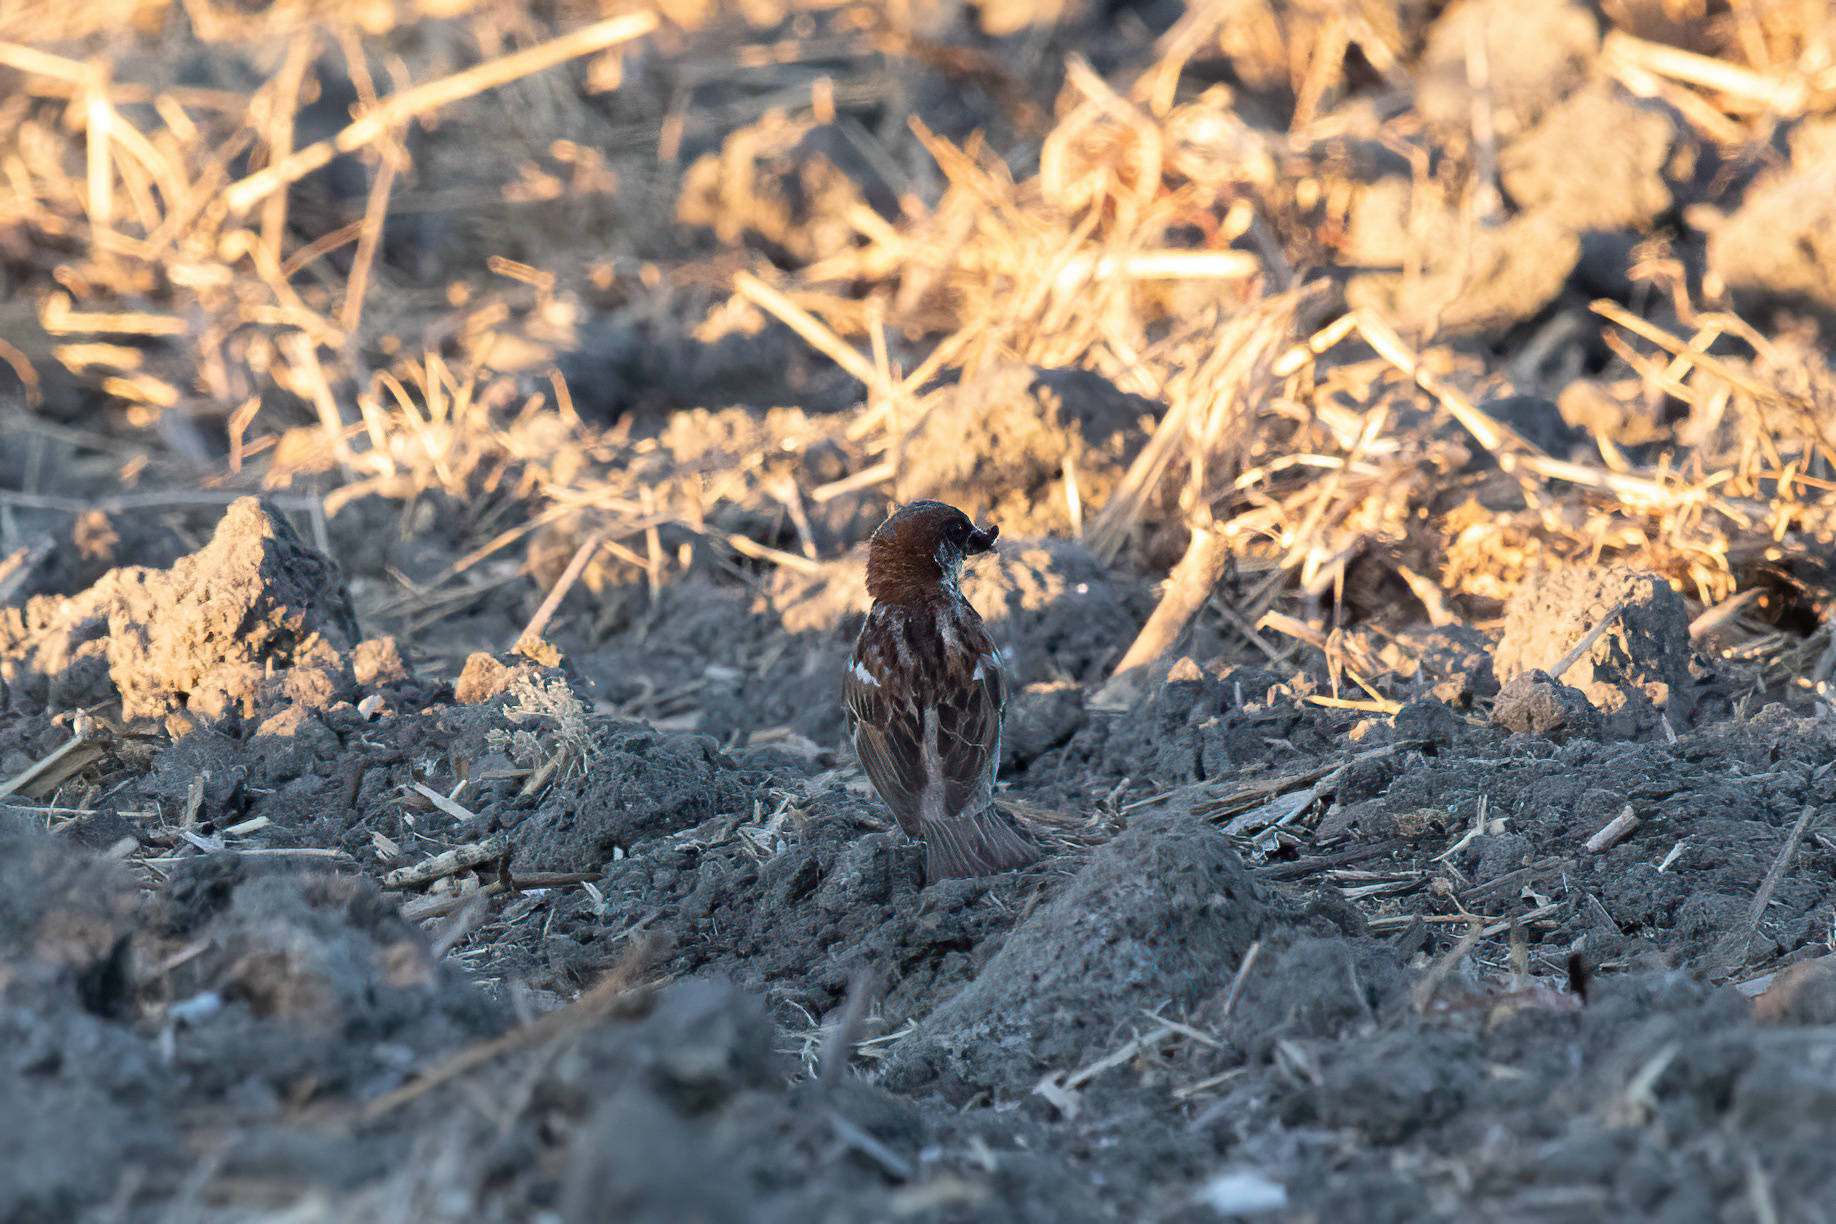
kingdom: Animalia
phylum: Chordata
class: Aves
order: Passeriformes
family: Passeridae
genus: Passer
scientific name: Passer domesticus
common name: House sparrow
